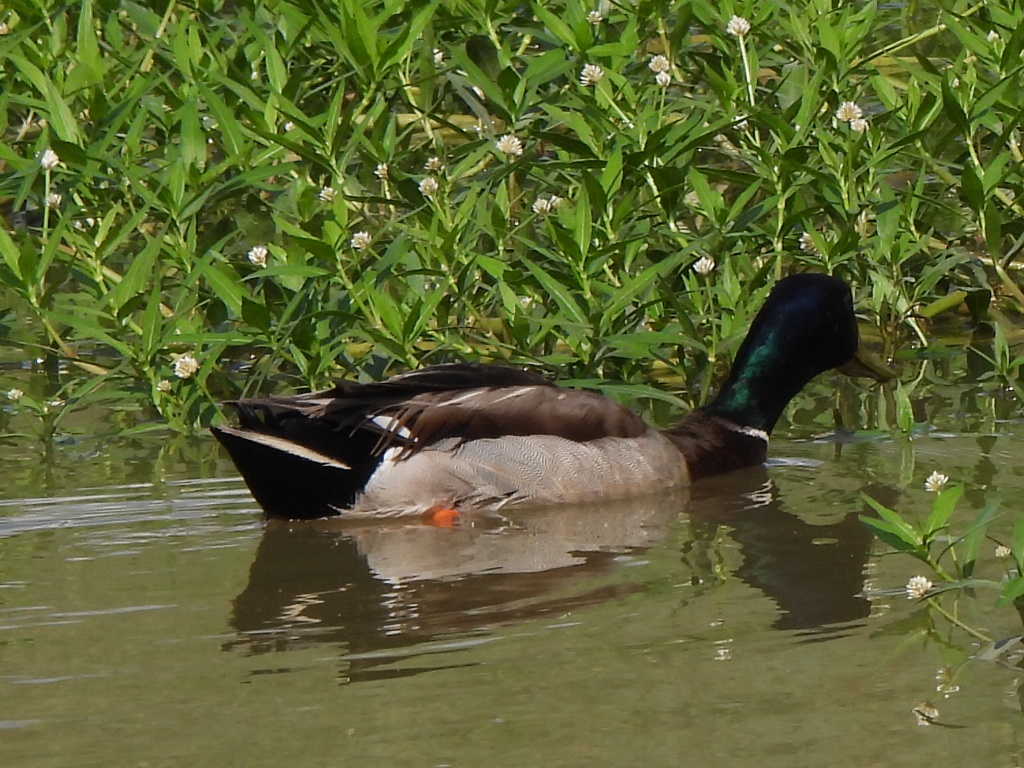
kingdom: Animalia
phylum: Chordata
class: Aves
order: Anseriformes
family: Anatidae
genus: Anas
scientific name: Anas platyrhynchos
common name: Mallard
